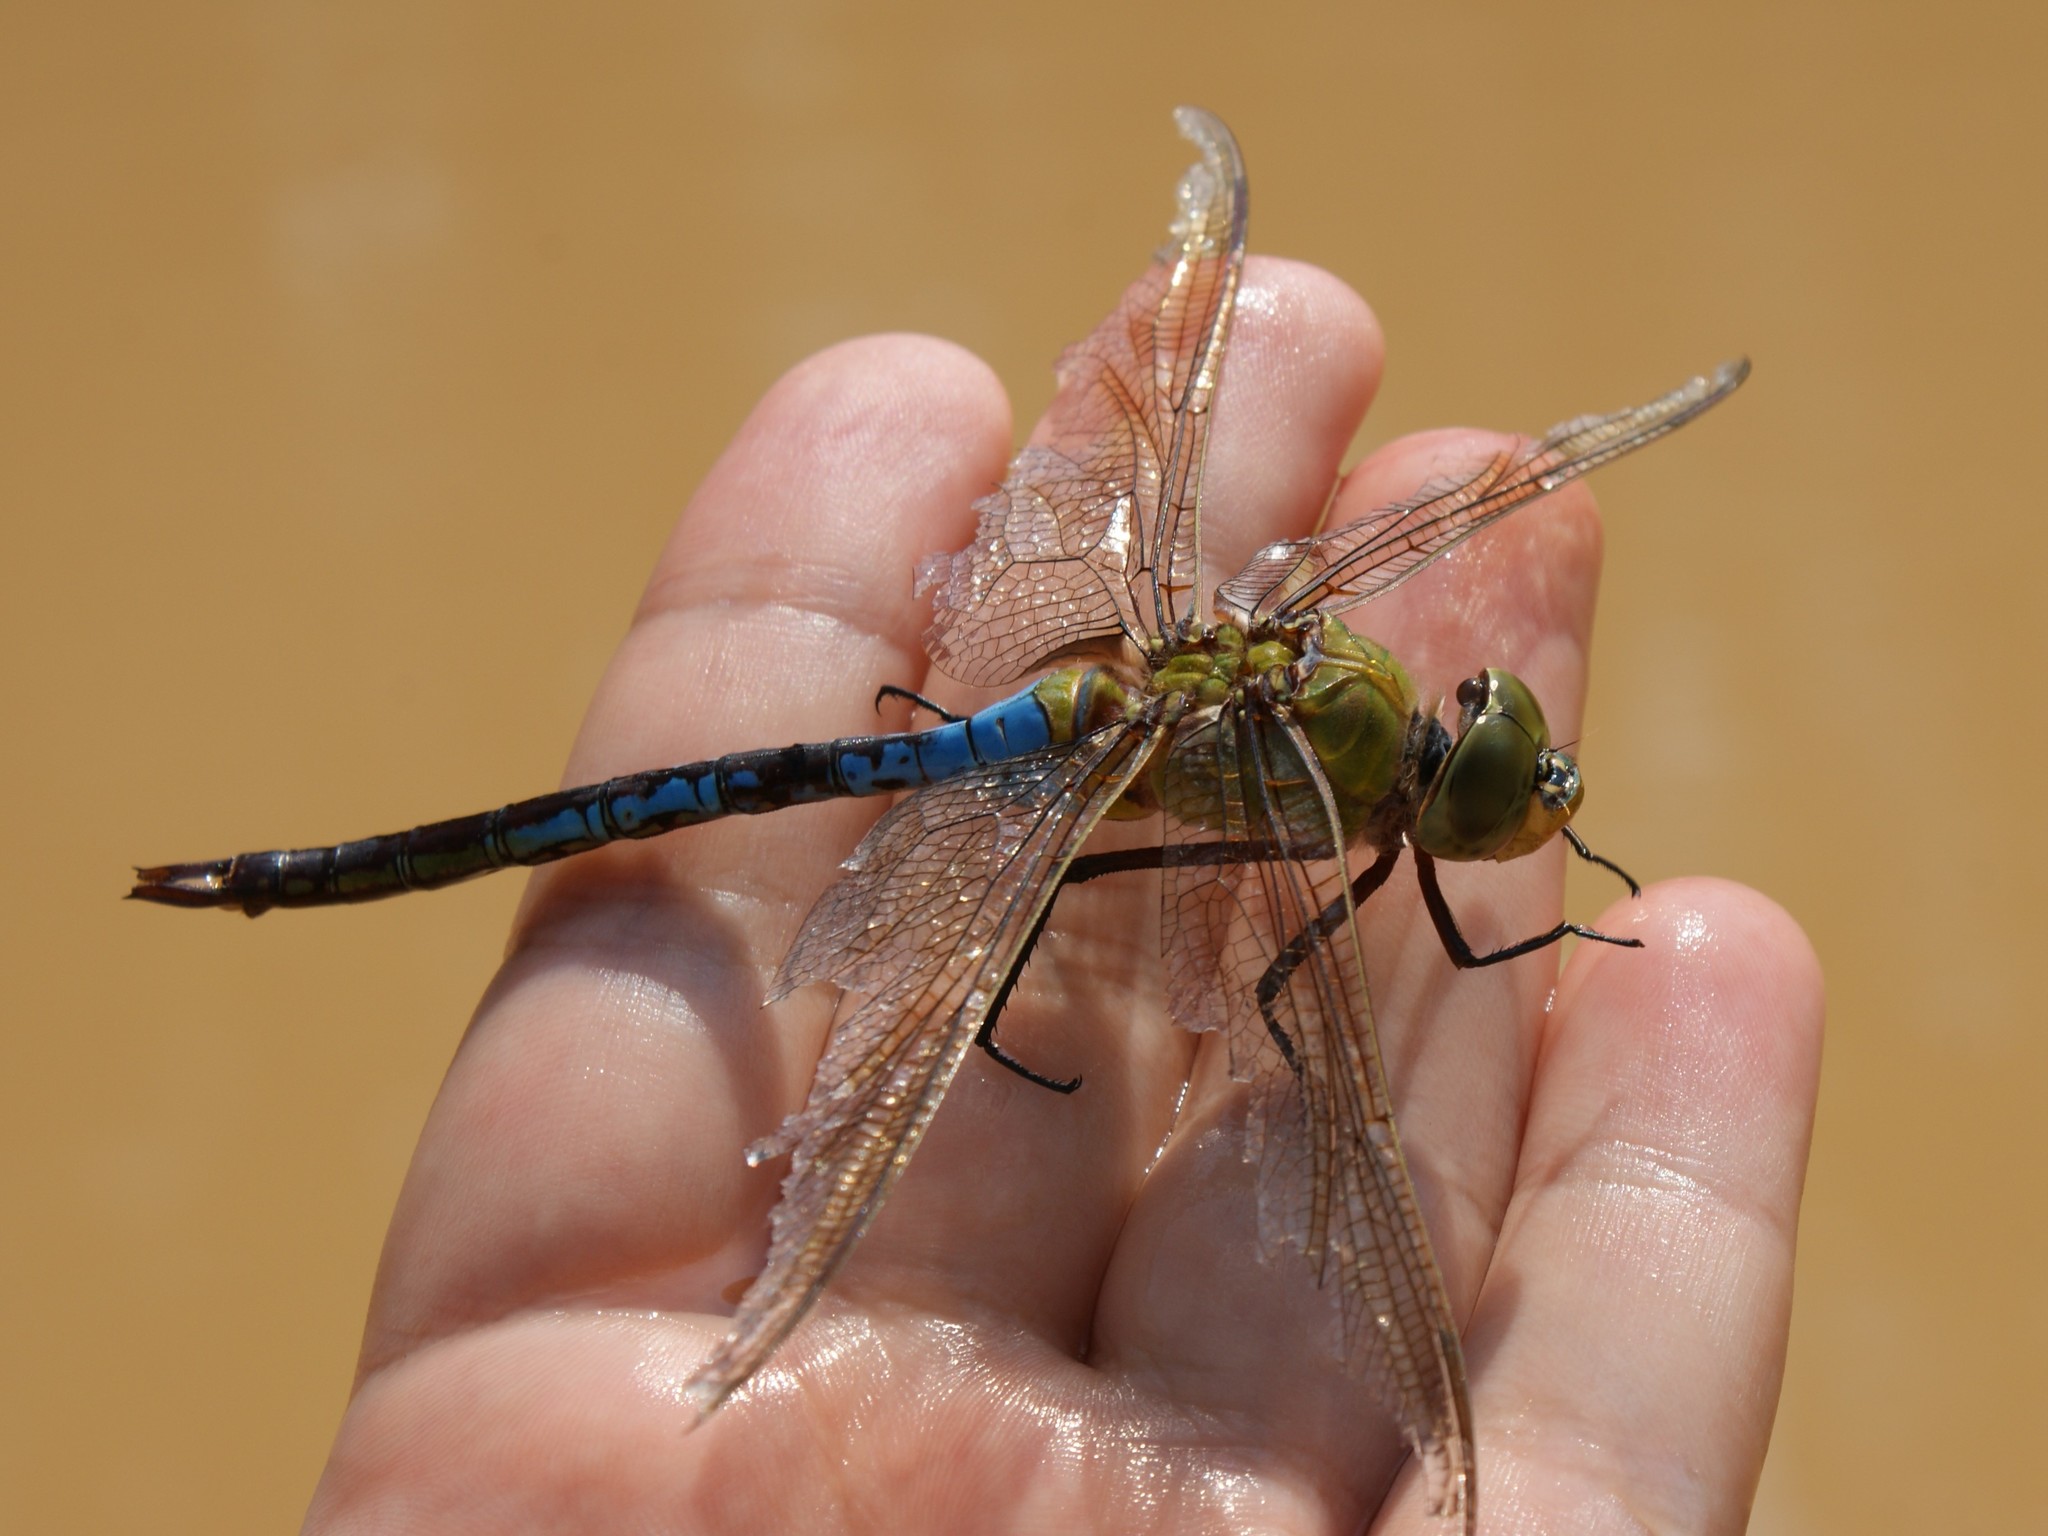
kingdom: Animalia
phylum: Arthropoda
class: Insecta
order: Odonata
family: Aeshnidae
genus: Anax
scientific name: Anax junius
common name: Common green darner
